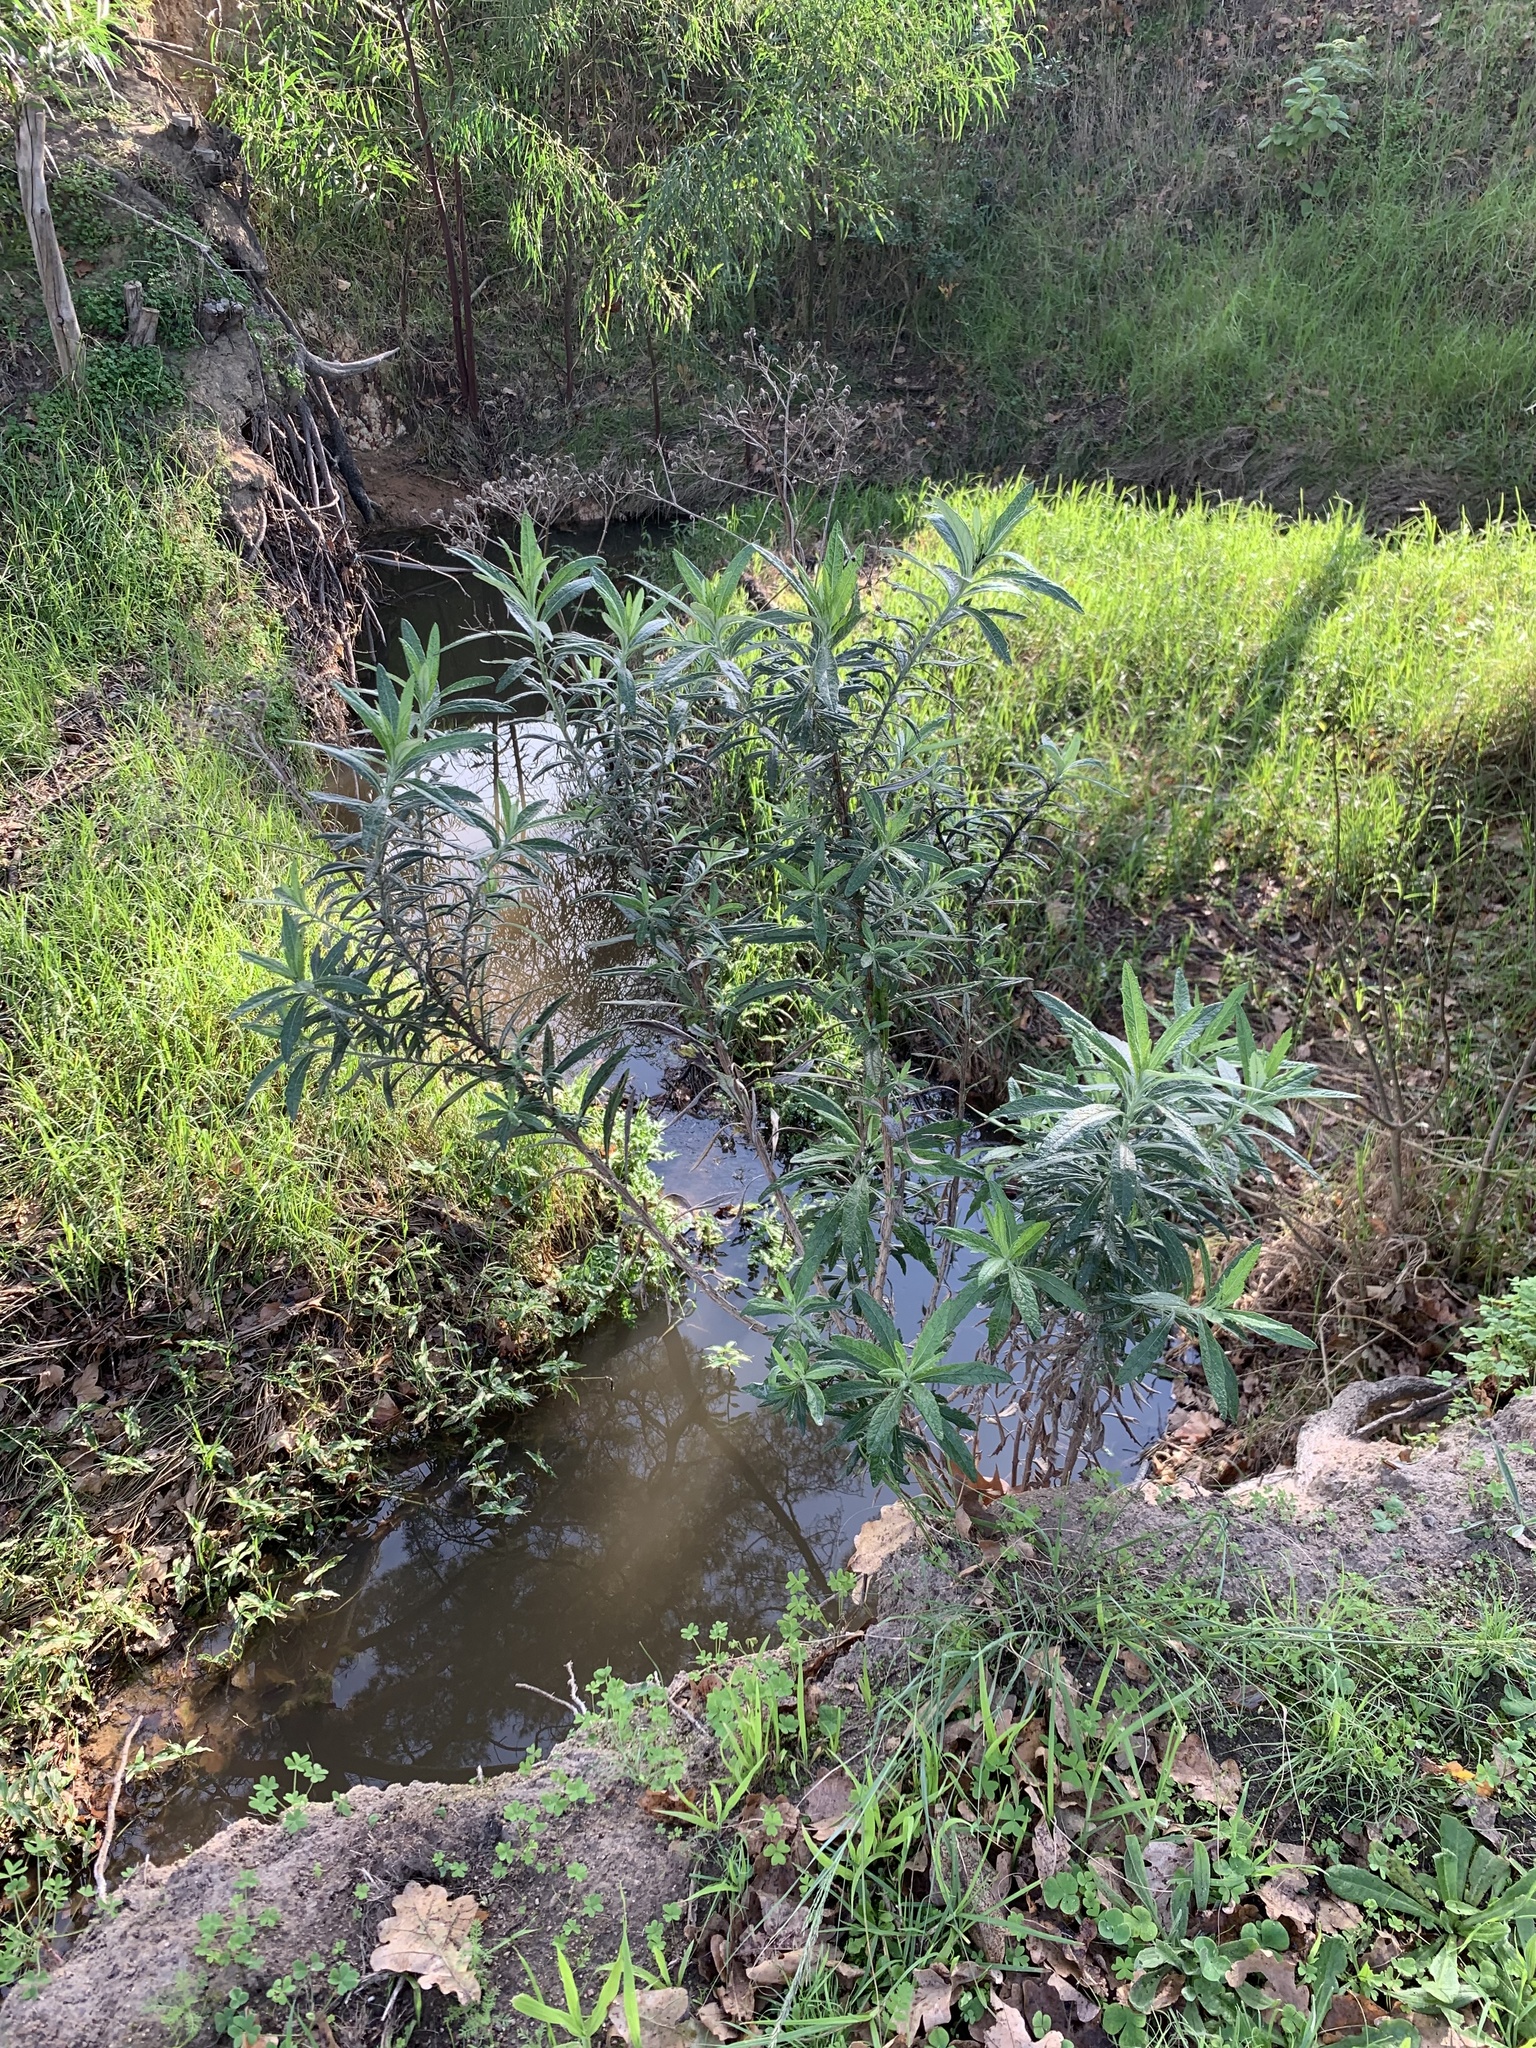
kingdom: Plantae
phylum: Tracheophyta
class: Magnoliopsida
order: Asterales
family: Asteraceae
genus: Senecio
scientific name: Senecio pterophorus
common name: Shoddy ragwort
